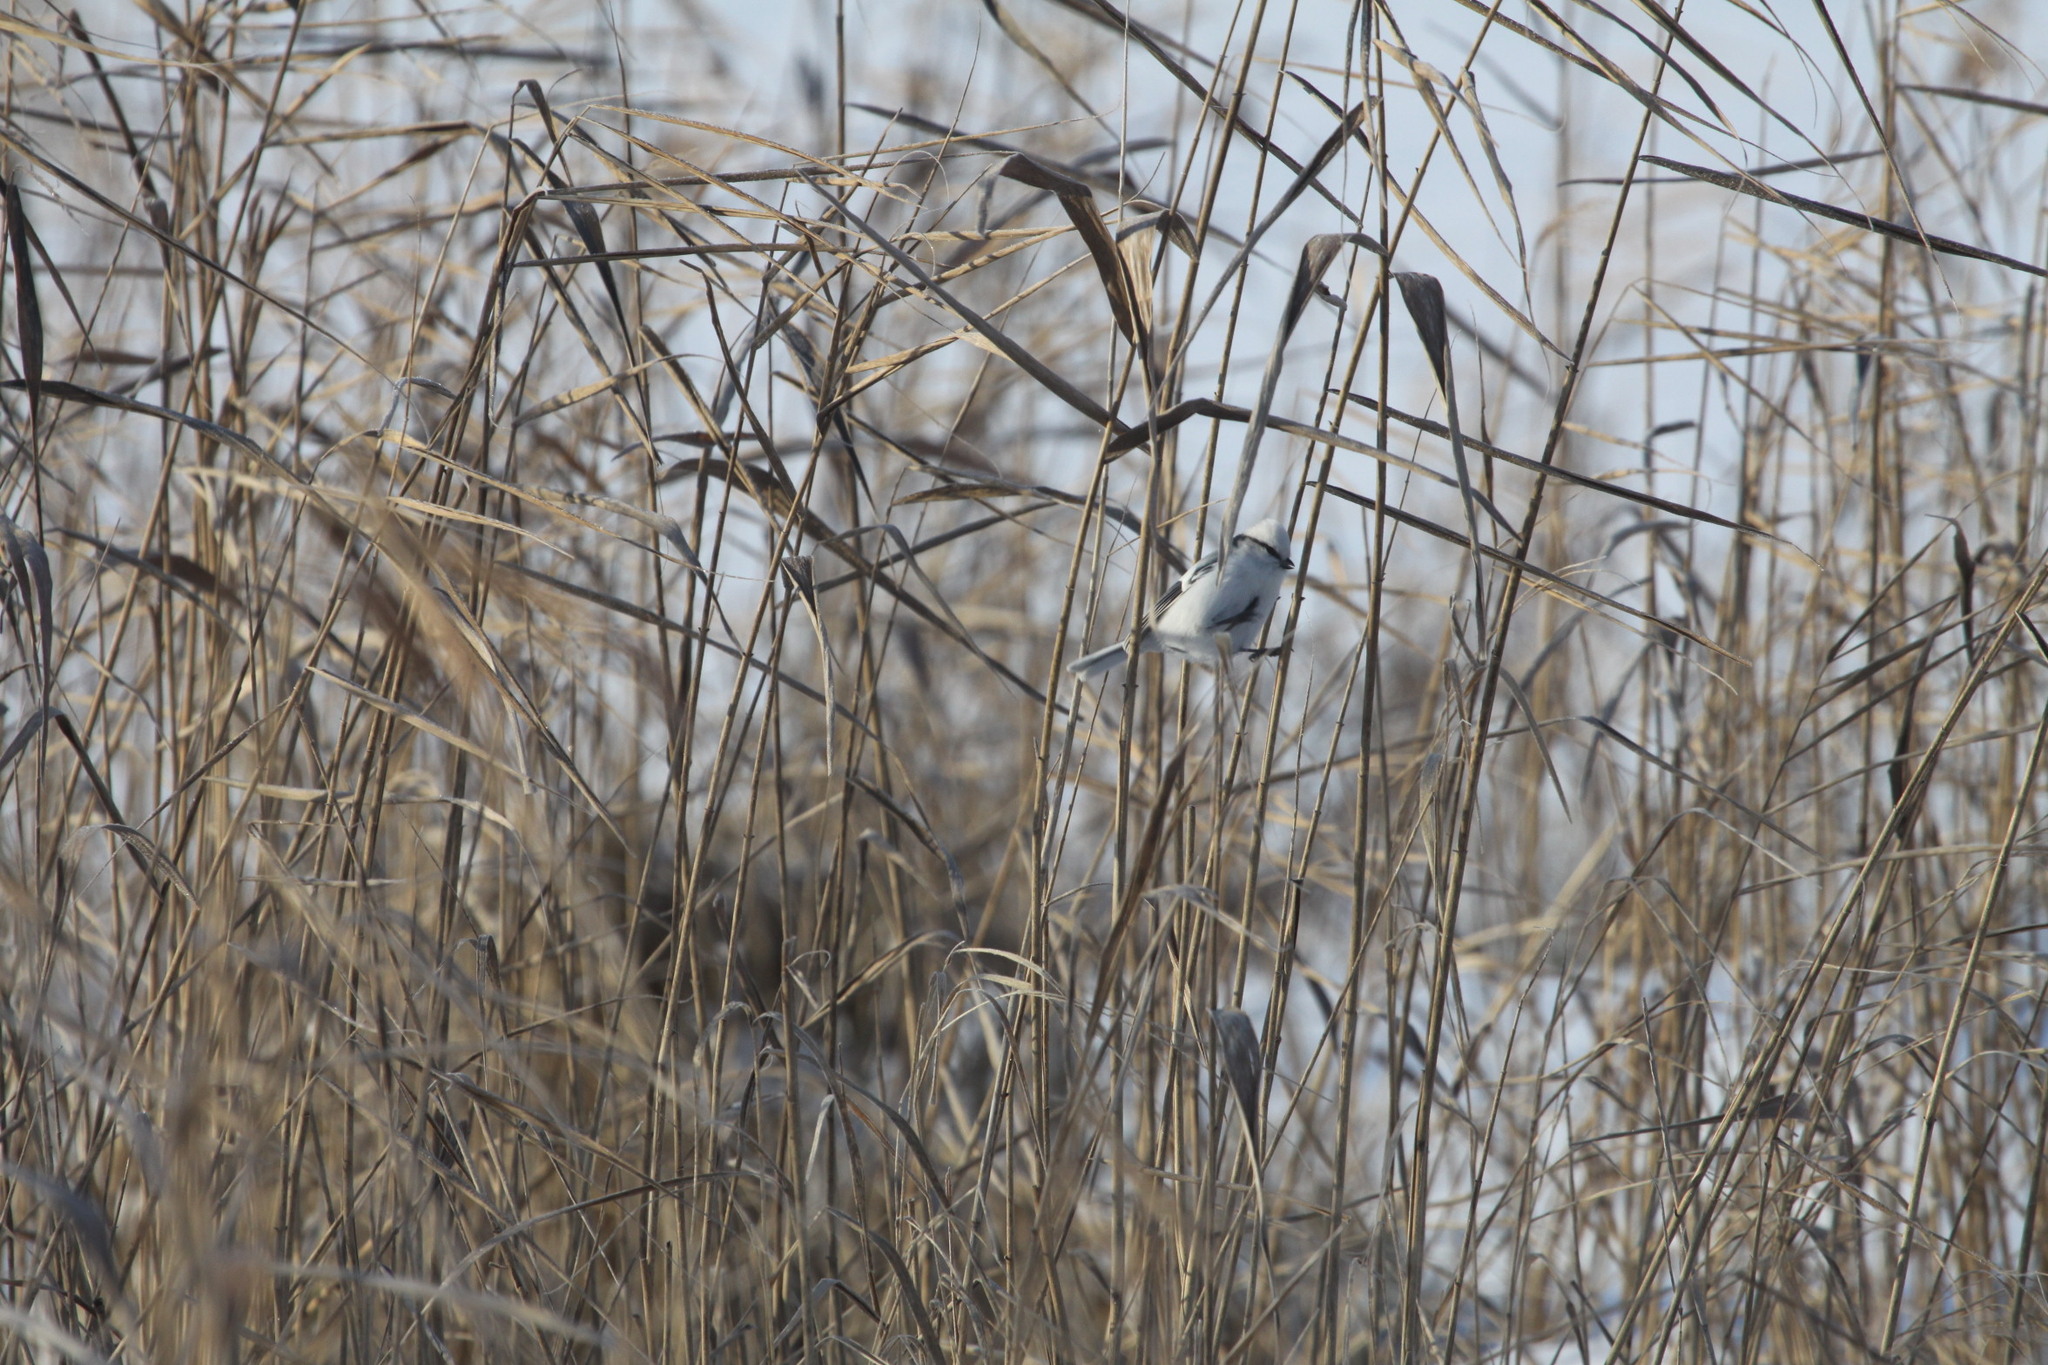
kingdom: Animalia
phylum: Chordata
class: Aves
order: Passeriformes
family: Paridae
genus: Cyanistes
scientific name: Cyanistes cyanus
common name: Azure tit
